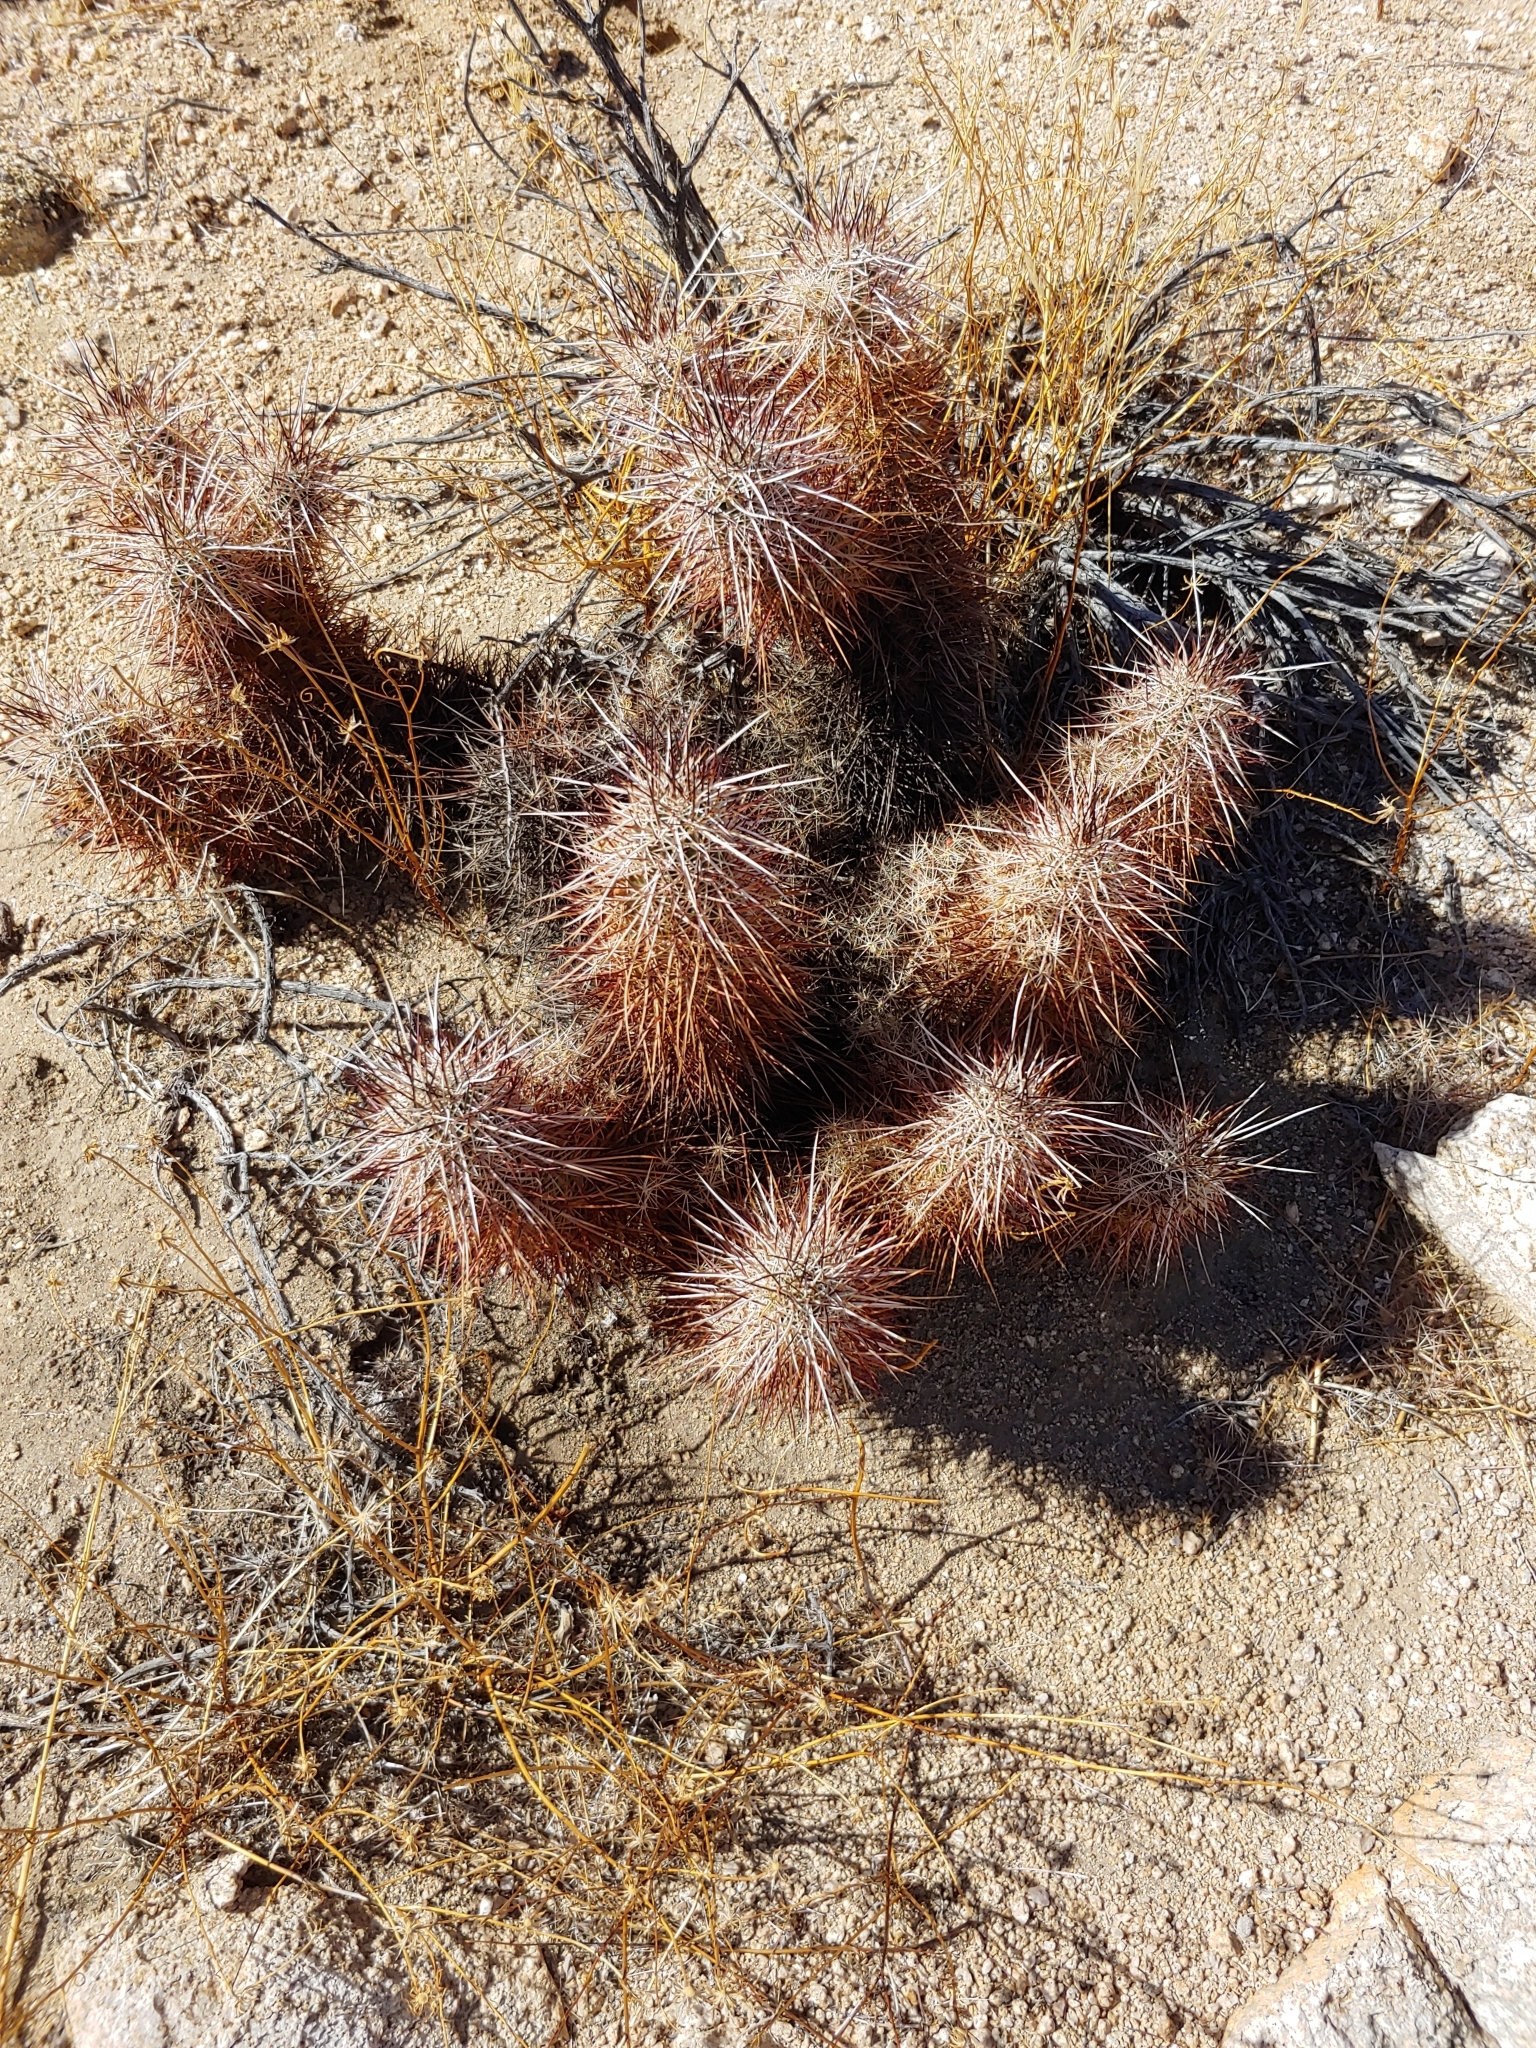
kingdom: Plantae
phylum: Tracheophyta
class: Magnoliopsida
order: Caryophyllales
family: Cactaceae
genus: Echinocereus
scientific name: Echinocereus engelmannii
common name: Engelmann's hedgehog cactus
